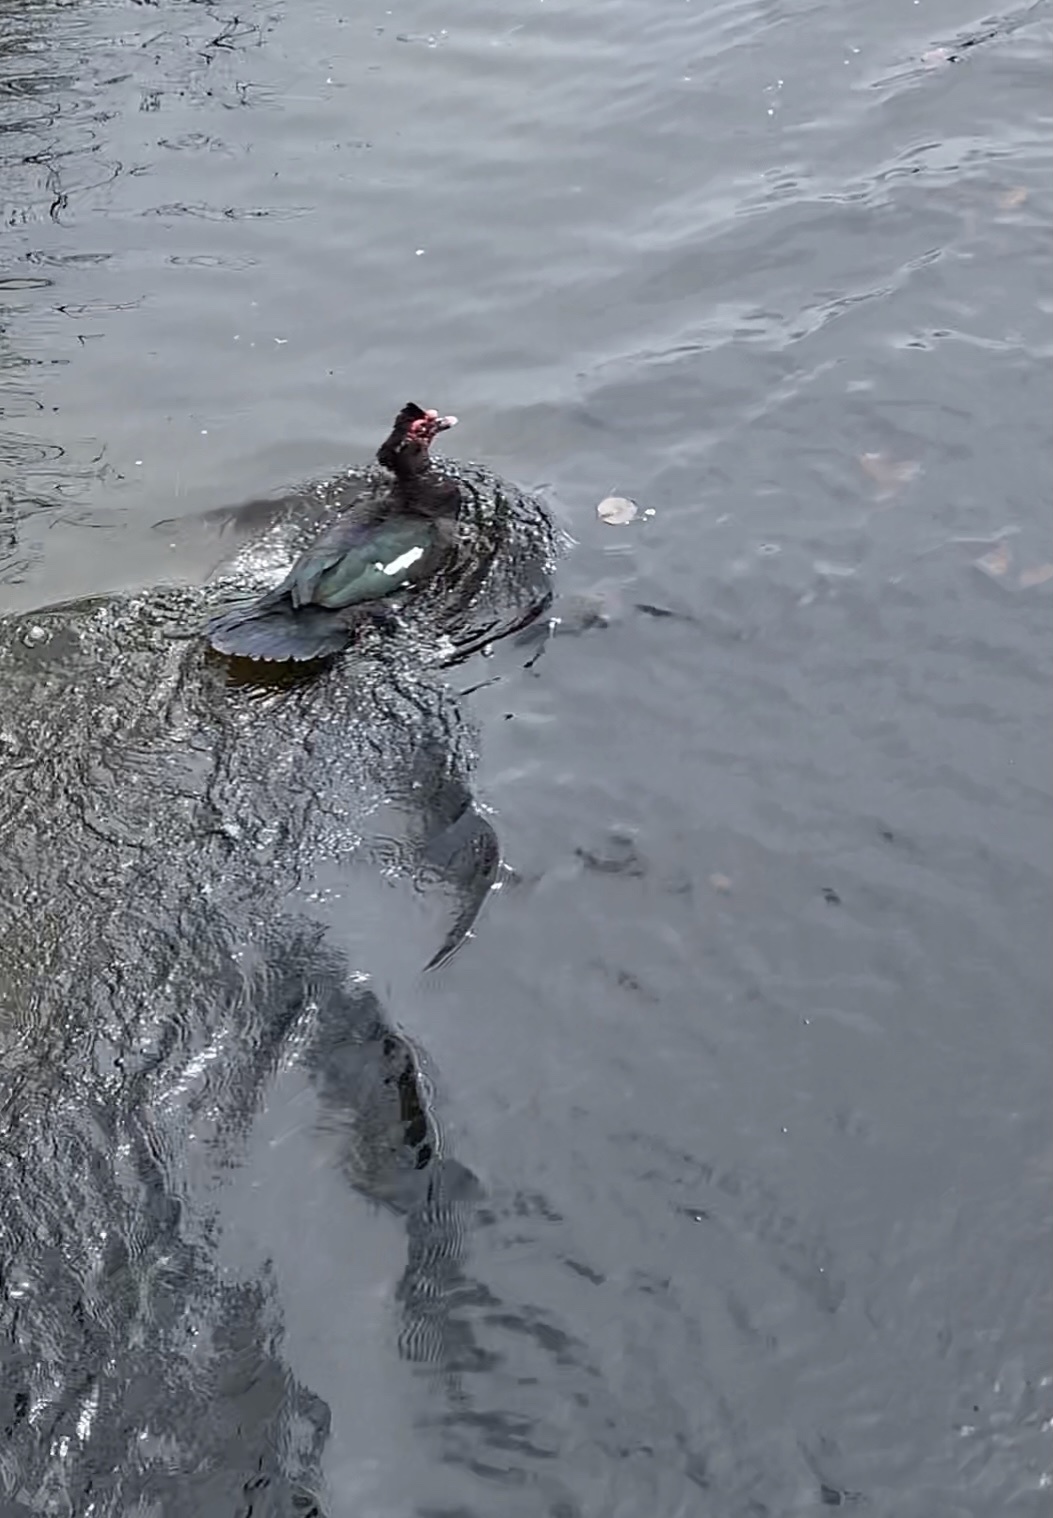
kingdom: Animalia
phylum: Chordata
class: Aves
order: Anseriformes
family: Anatidae
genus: Cairina
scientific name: Cairina moschata
